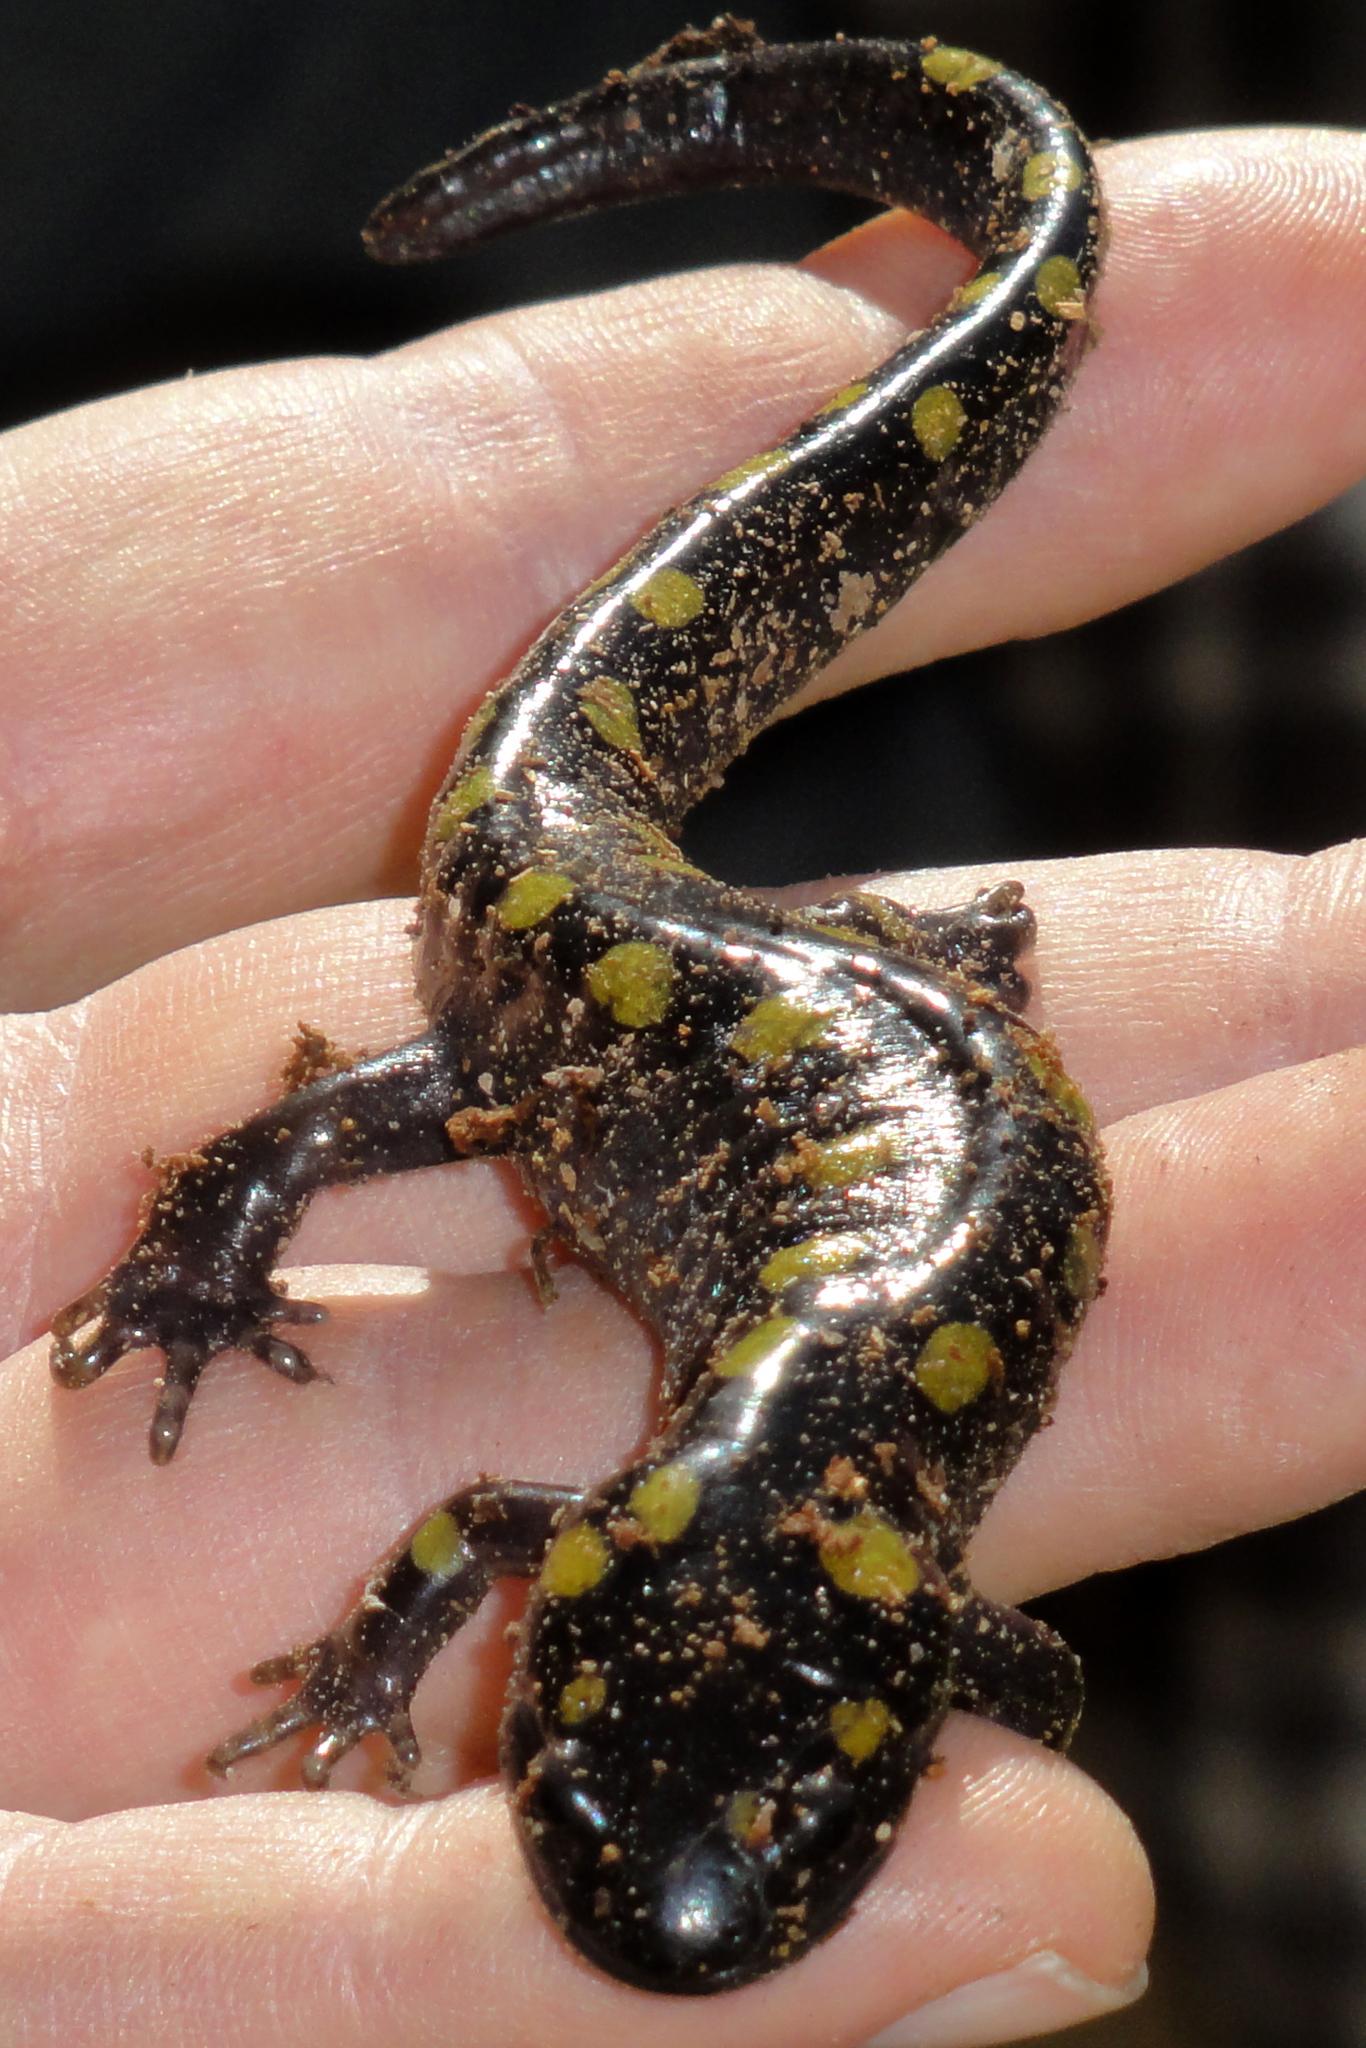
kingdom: Animalia
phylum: Chordata
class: Amphibia
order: Caudata
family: Ambystomatidae
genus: Ambystoma
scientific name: Ambystoma maculatum
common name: Spotted salamander
